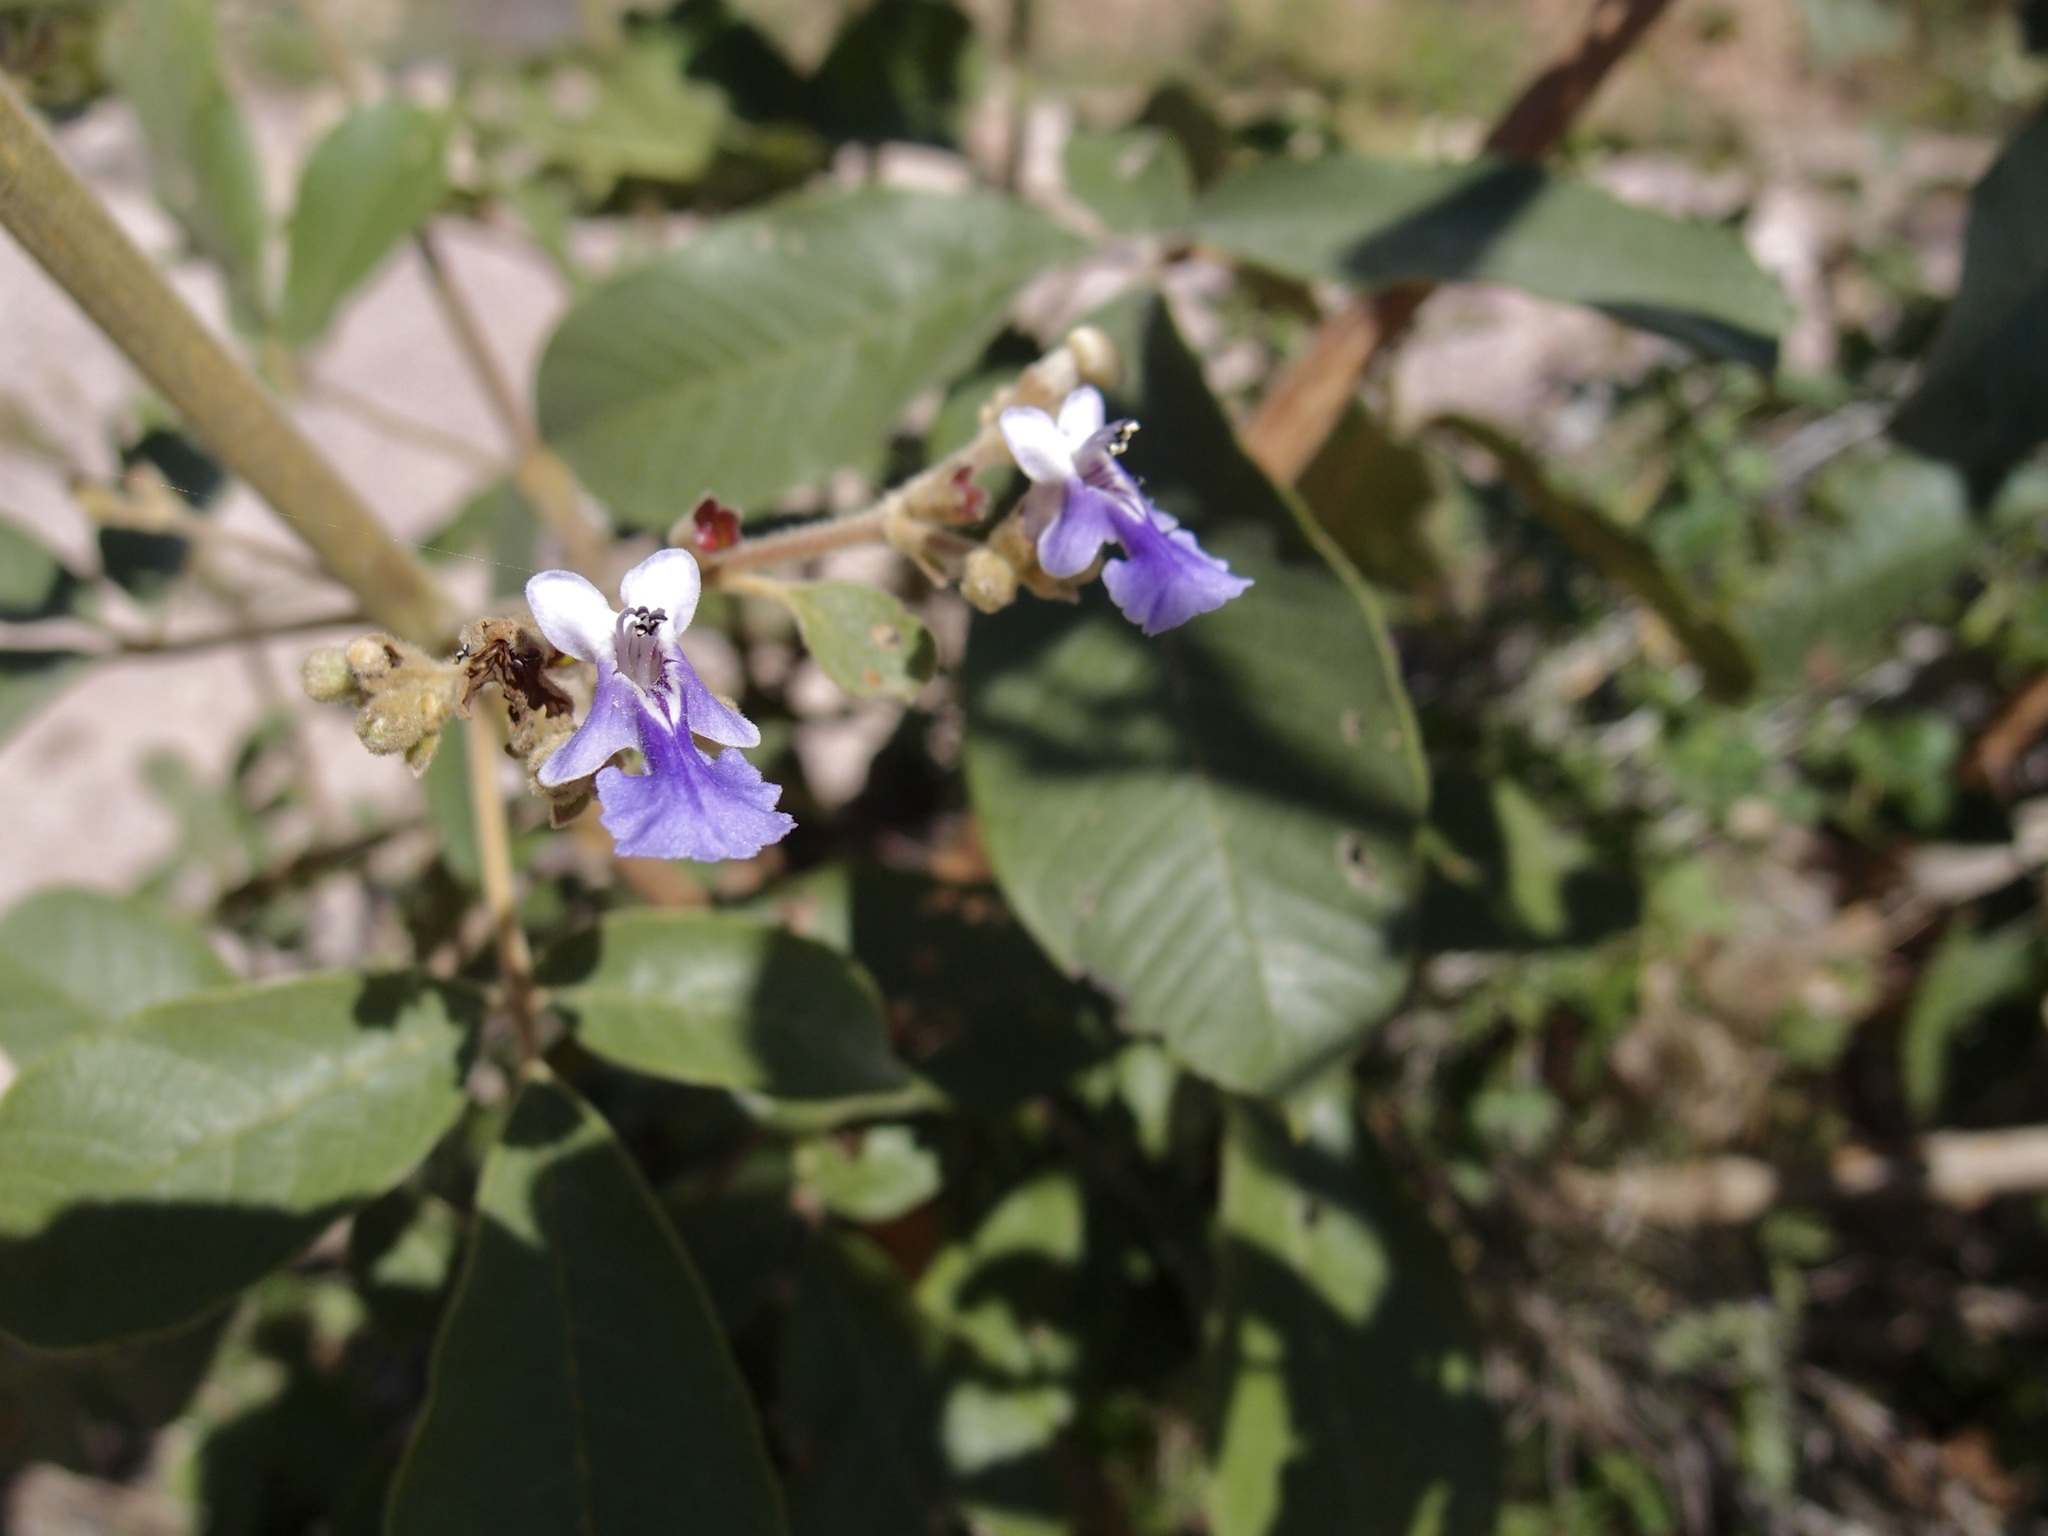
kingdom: Plantae
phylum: Tracheophyta
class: Magnoliopsida
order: Lamiales
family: Lamiaceae
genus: Vitex
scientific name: Vitex mollis
